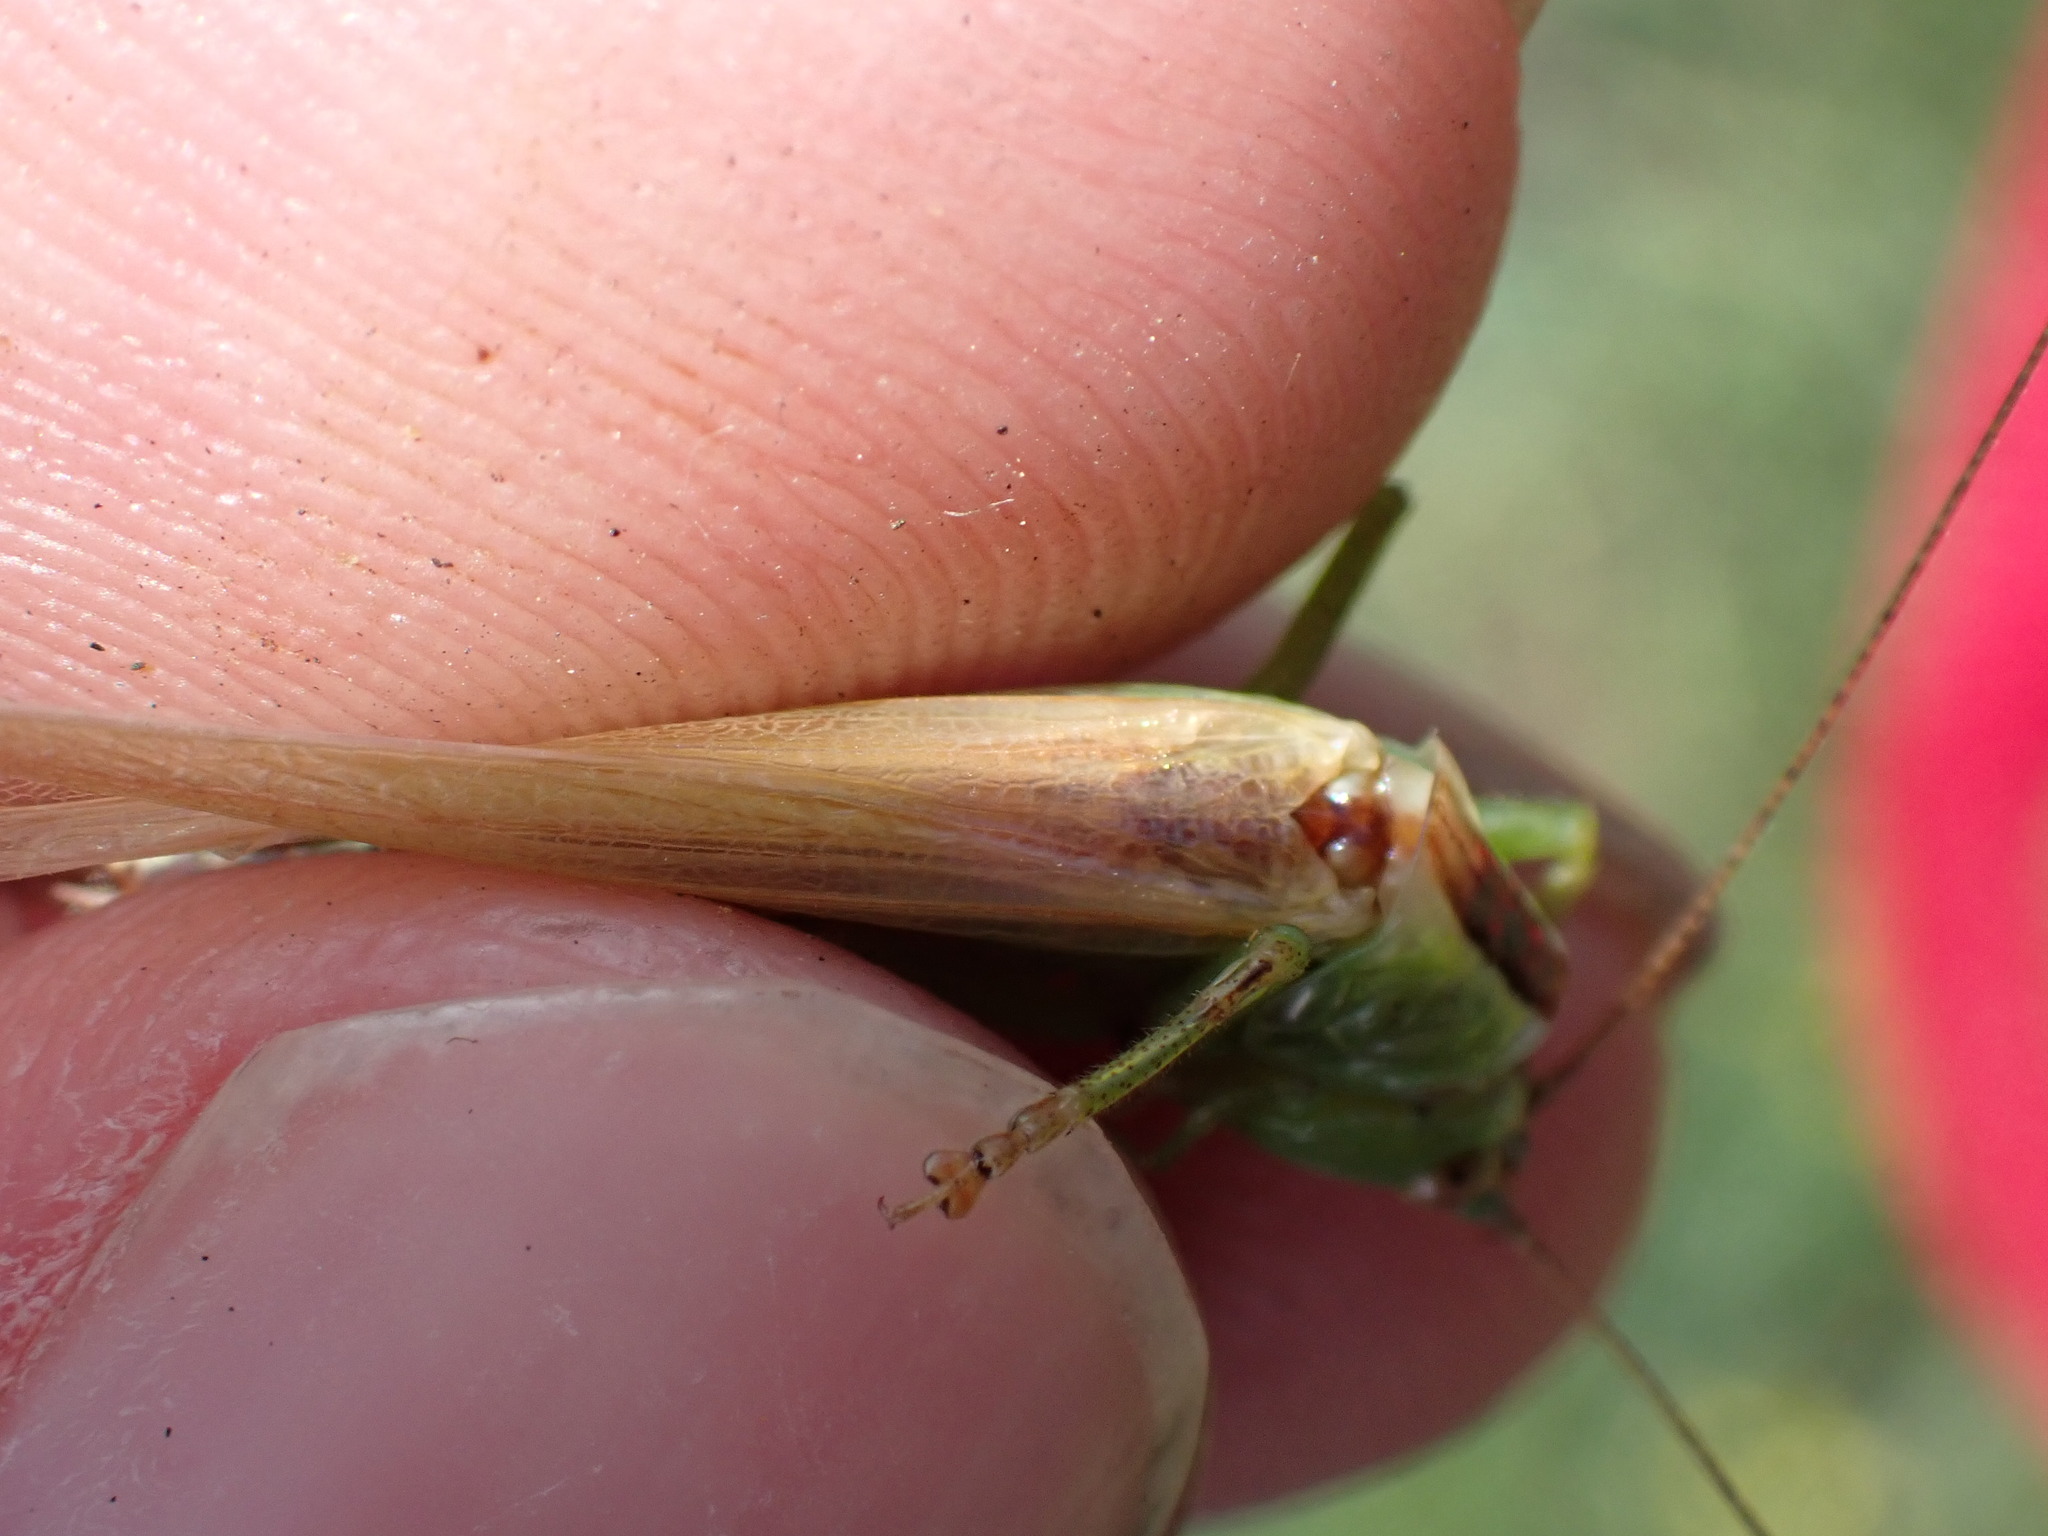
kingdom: Animalia
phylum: Arthropoda
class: Insecta
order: Orthoptera
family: Tettigoniidae
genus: Conocephalus
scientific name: Conocephalus fuscus
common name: Long-winged conehead
